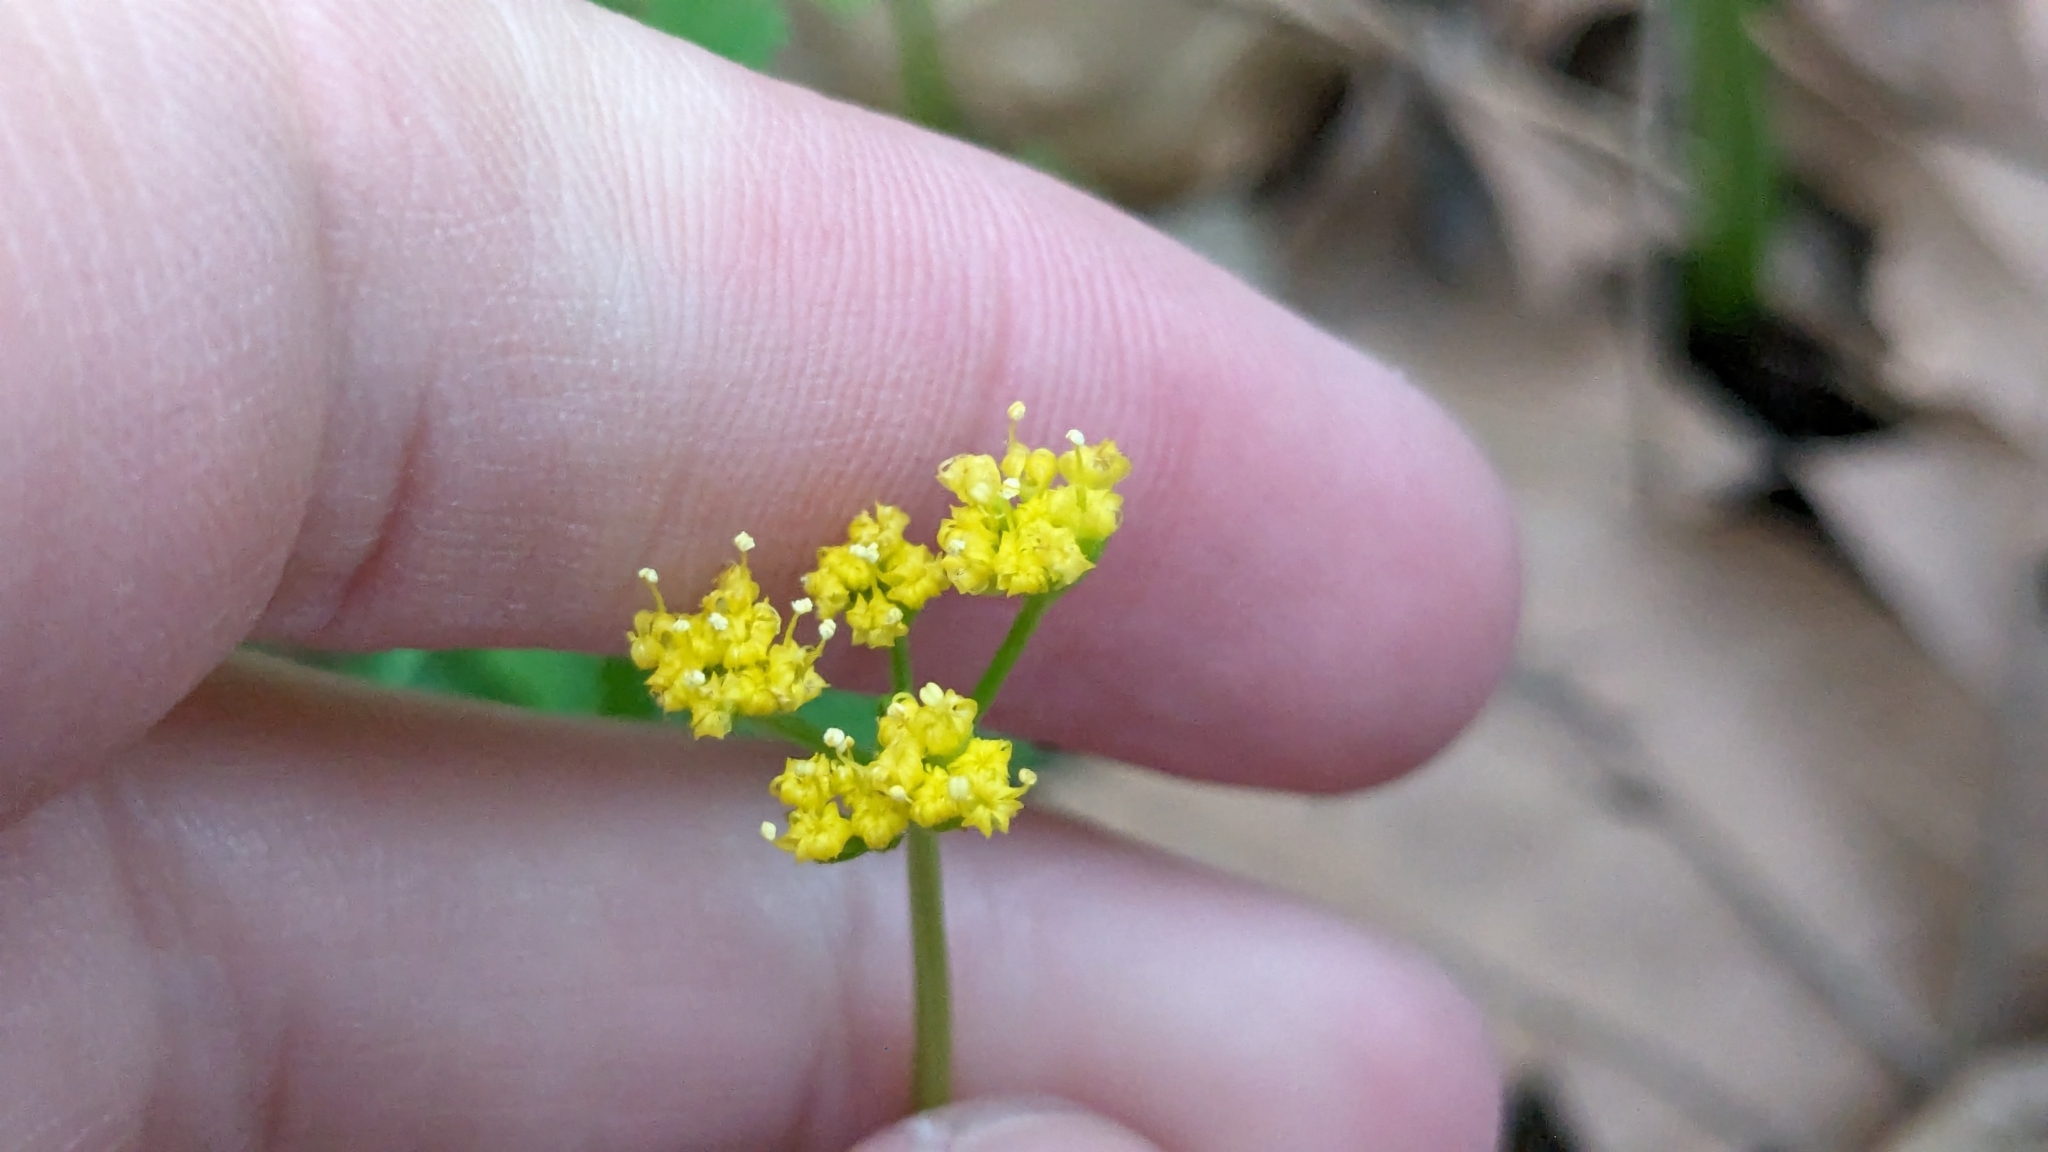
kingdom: Plantae
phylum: Tracheophyta
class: Magnoliopsida
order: Apiales
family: Apiaceae
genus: Tauschia
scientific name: Tauschia texana
